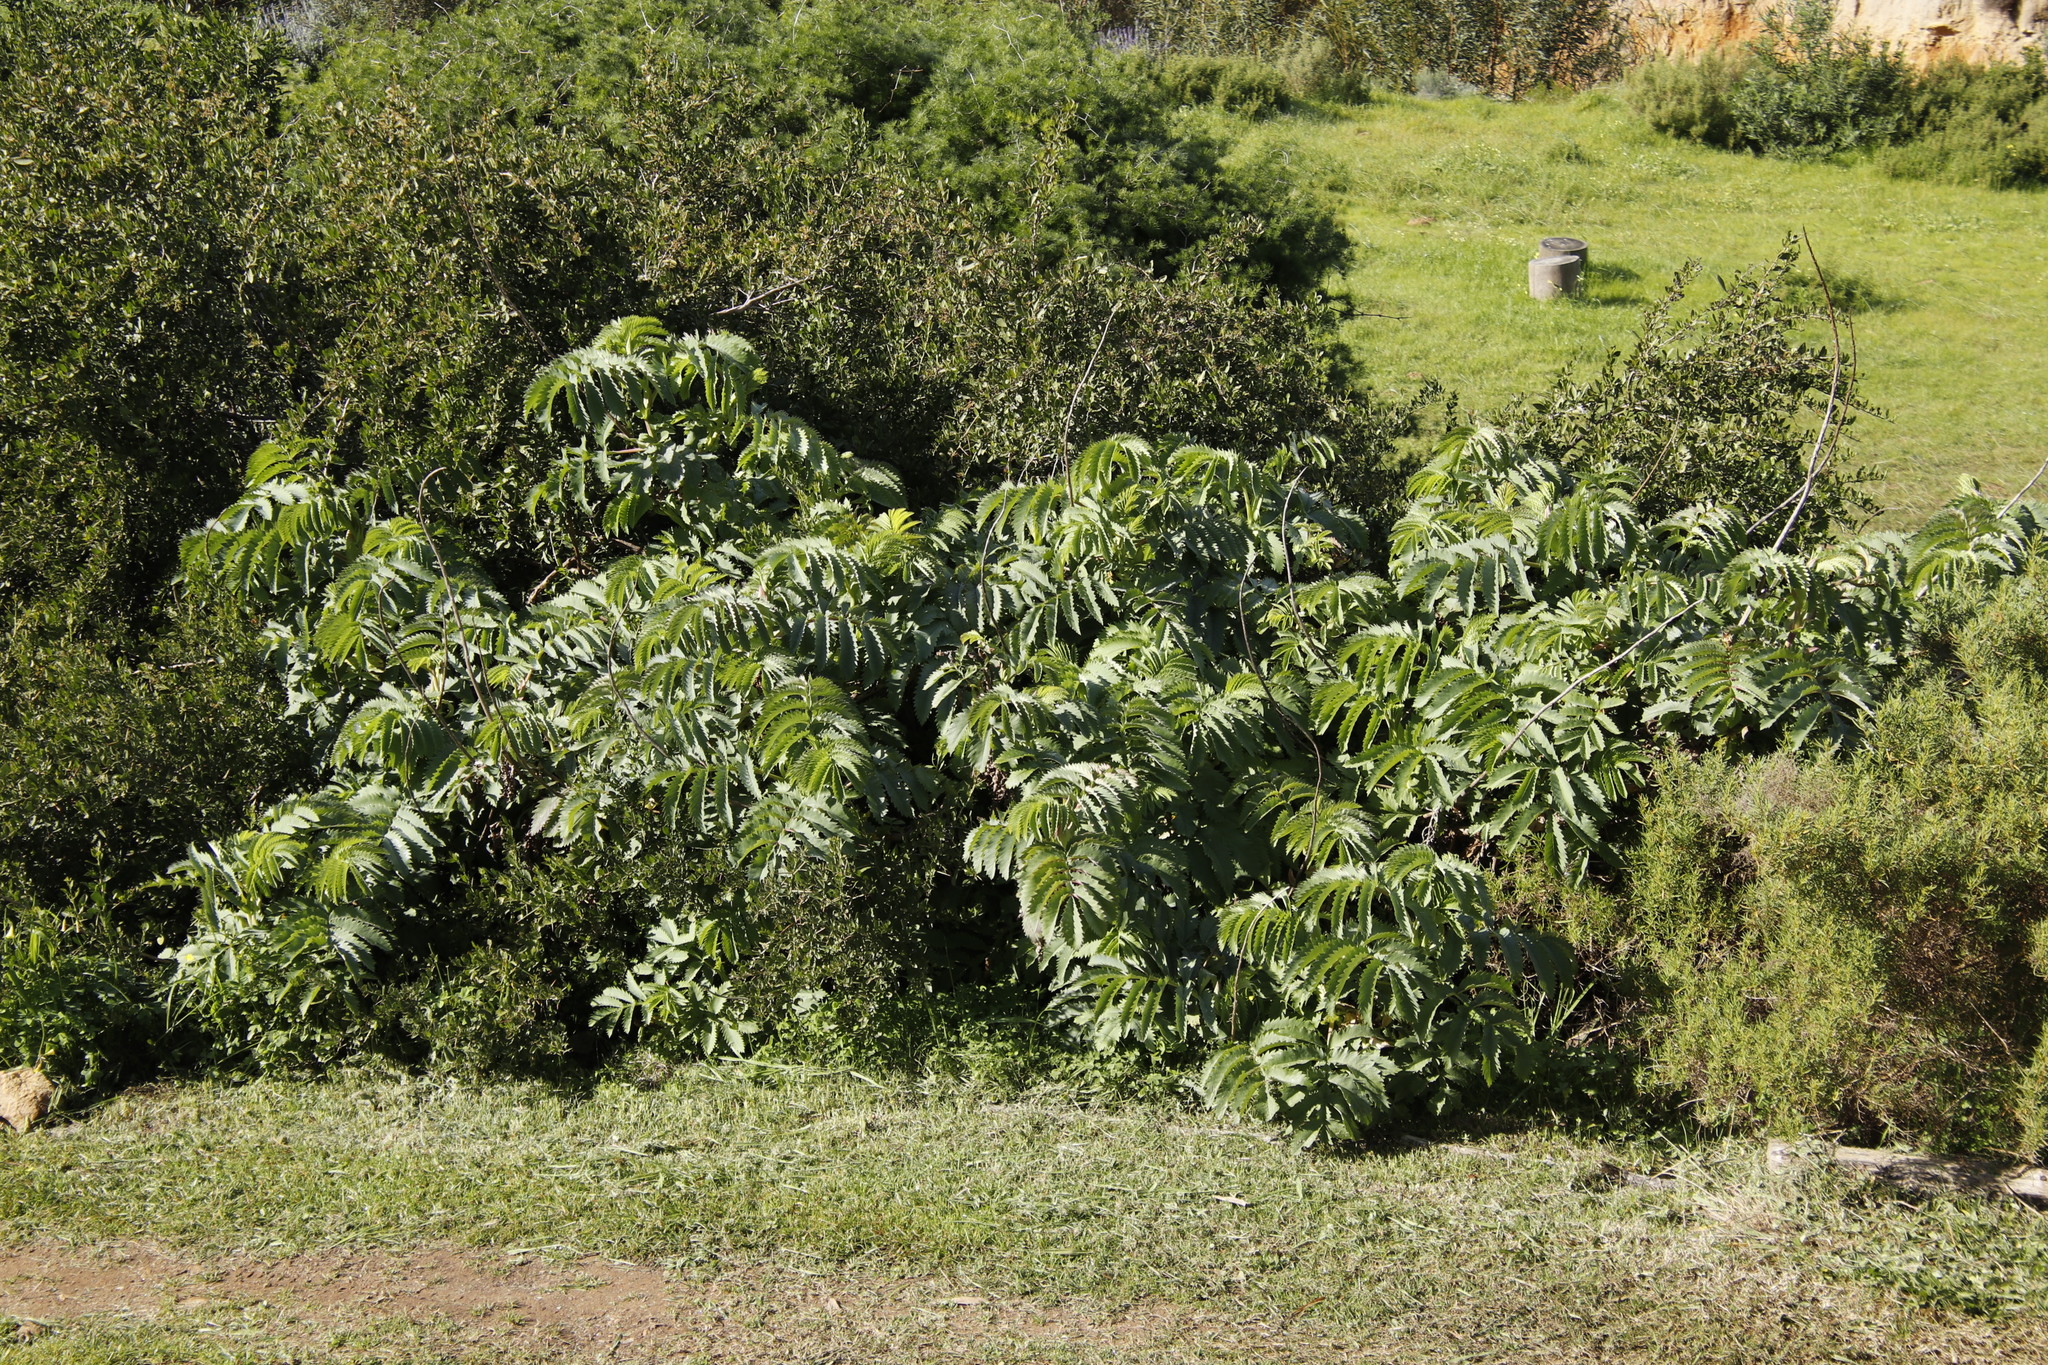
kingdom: Plantae
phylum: Tracheophyta
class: Magnoliopsida
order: Geraniales
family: Melianthaceae
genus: Melianthus
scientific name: Melianthus major
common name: Honey-flower
